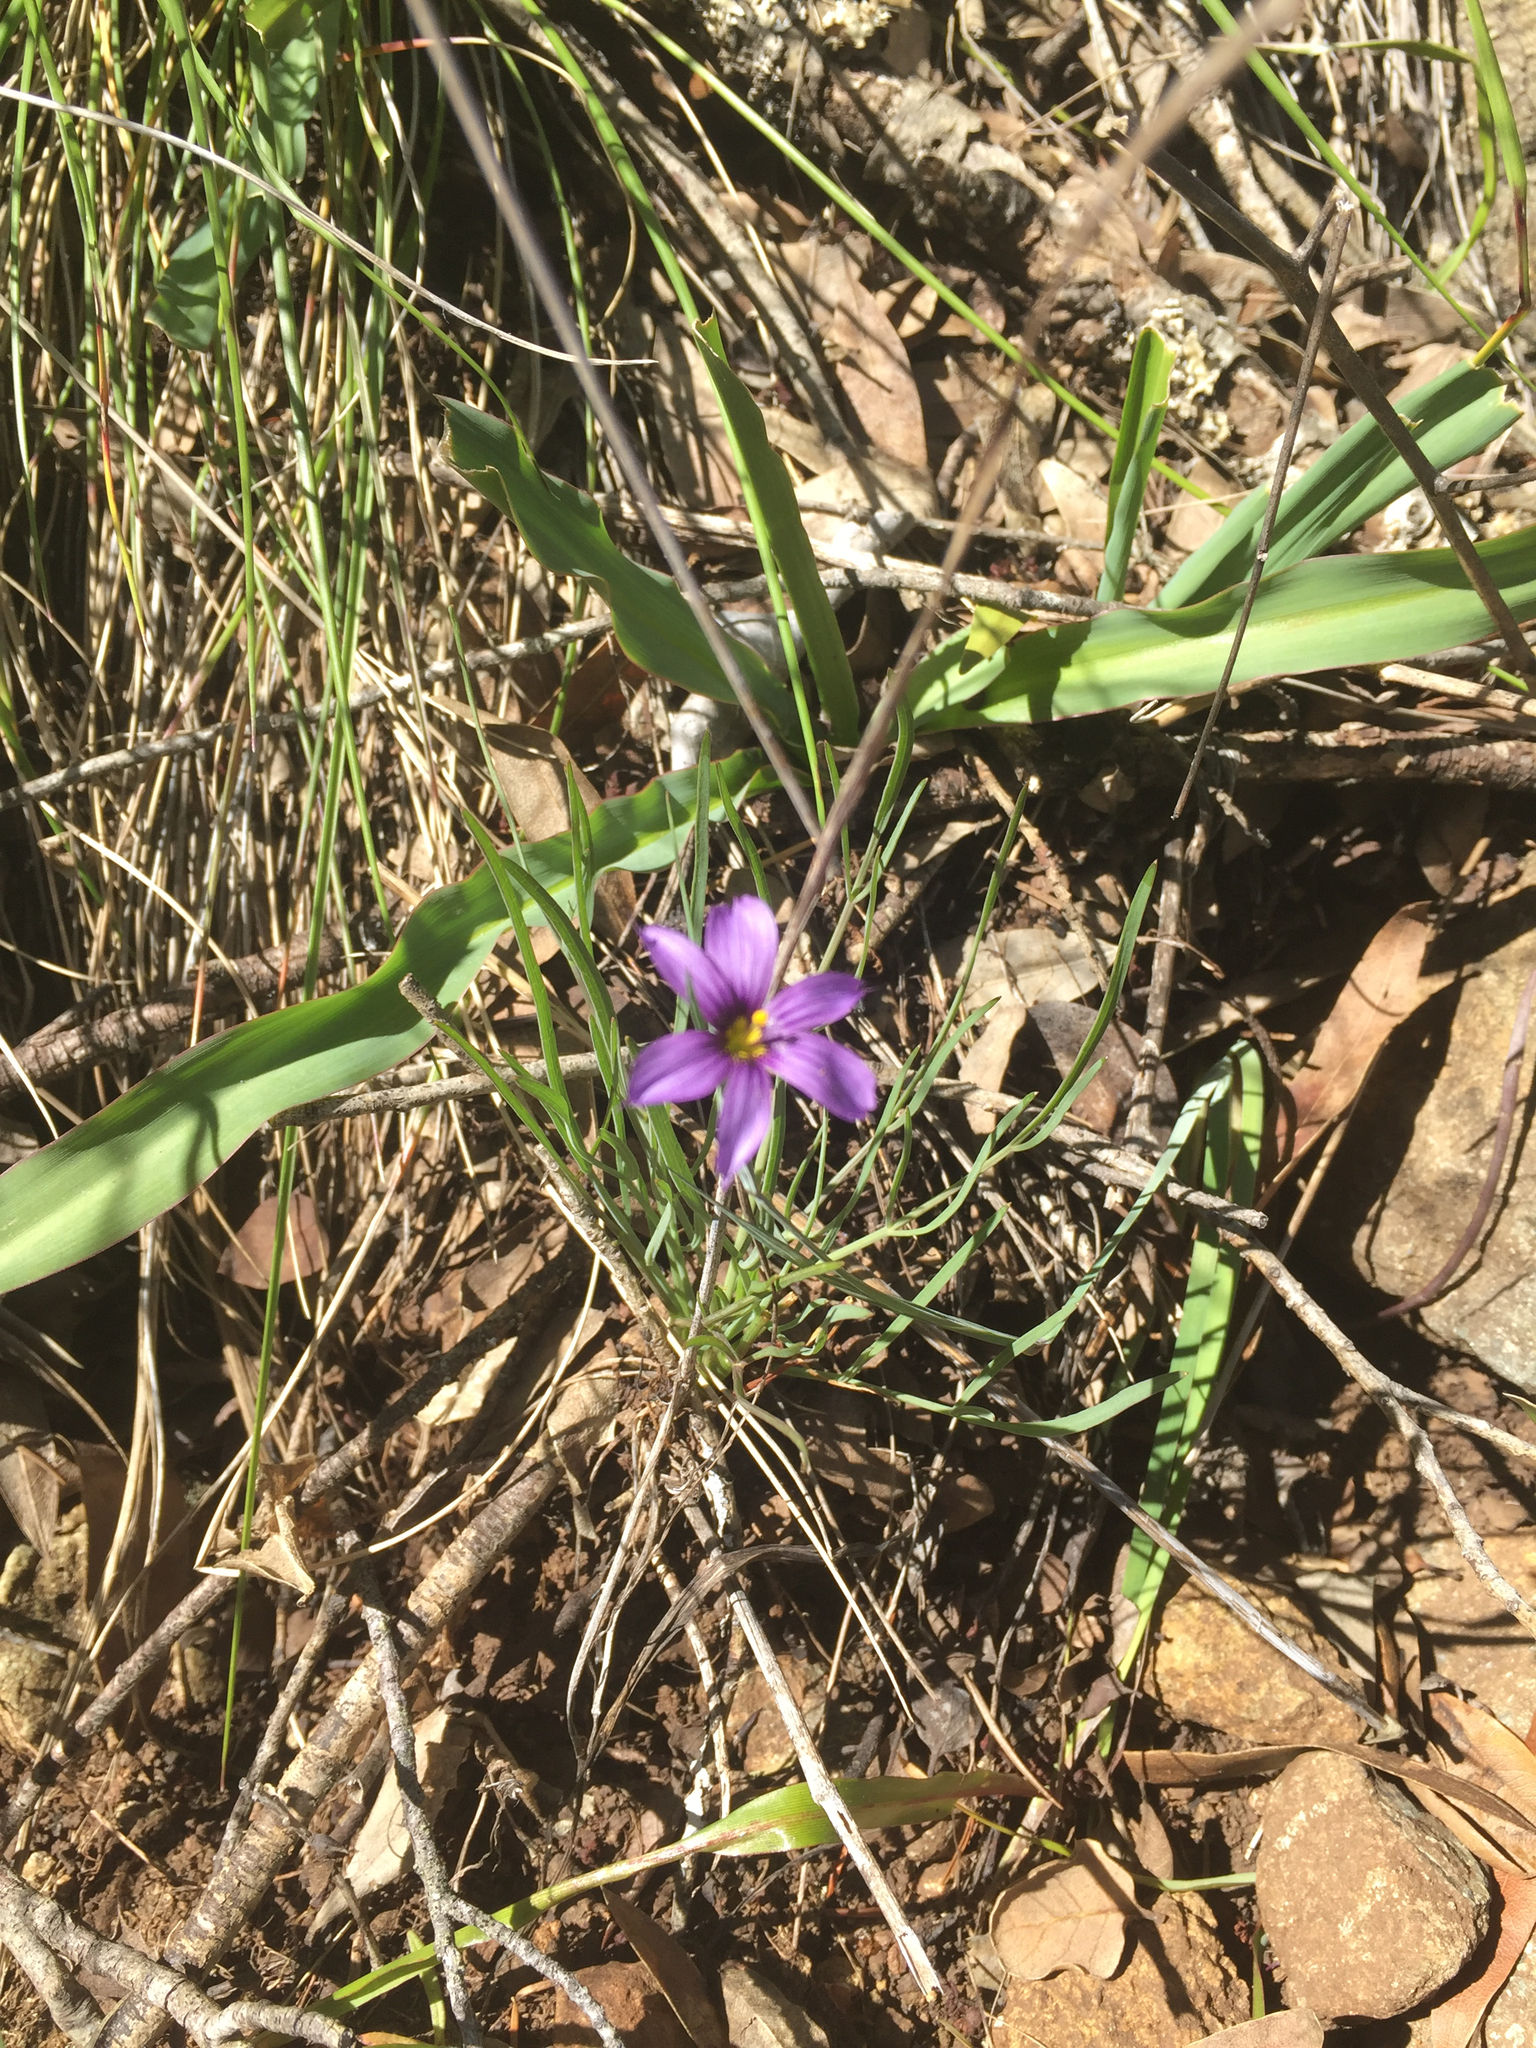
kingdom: Plantae
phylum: Tracheophyta
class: Liliopsida
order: Asparagales
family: Iridaceae
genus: Sisyrinchium
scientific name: Sisyrinchium bellum
